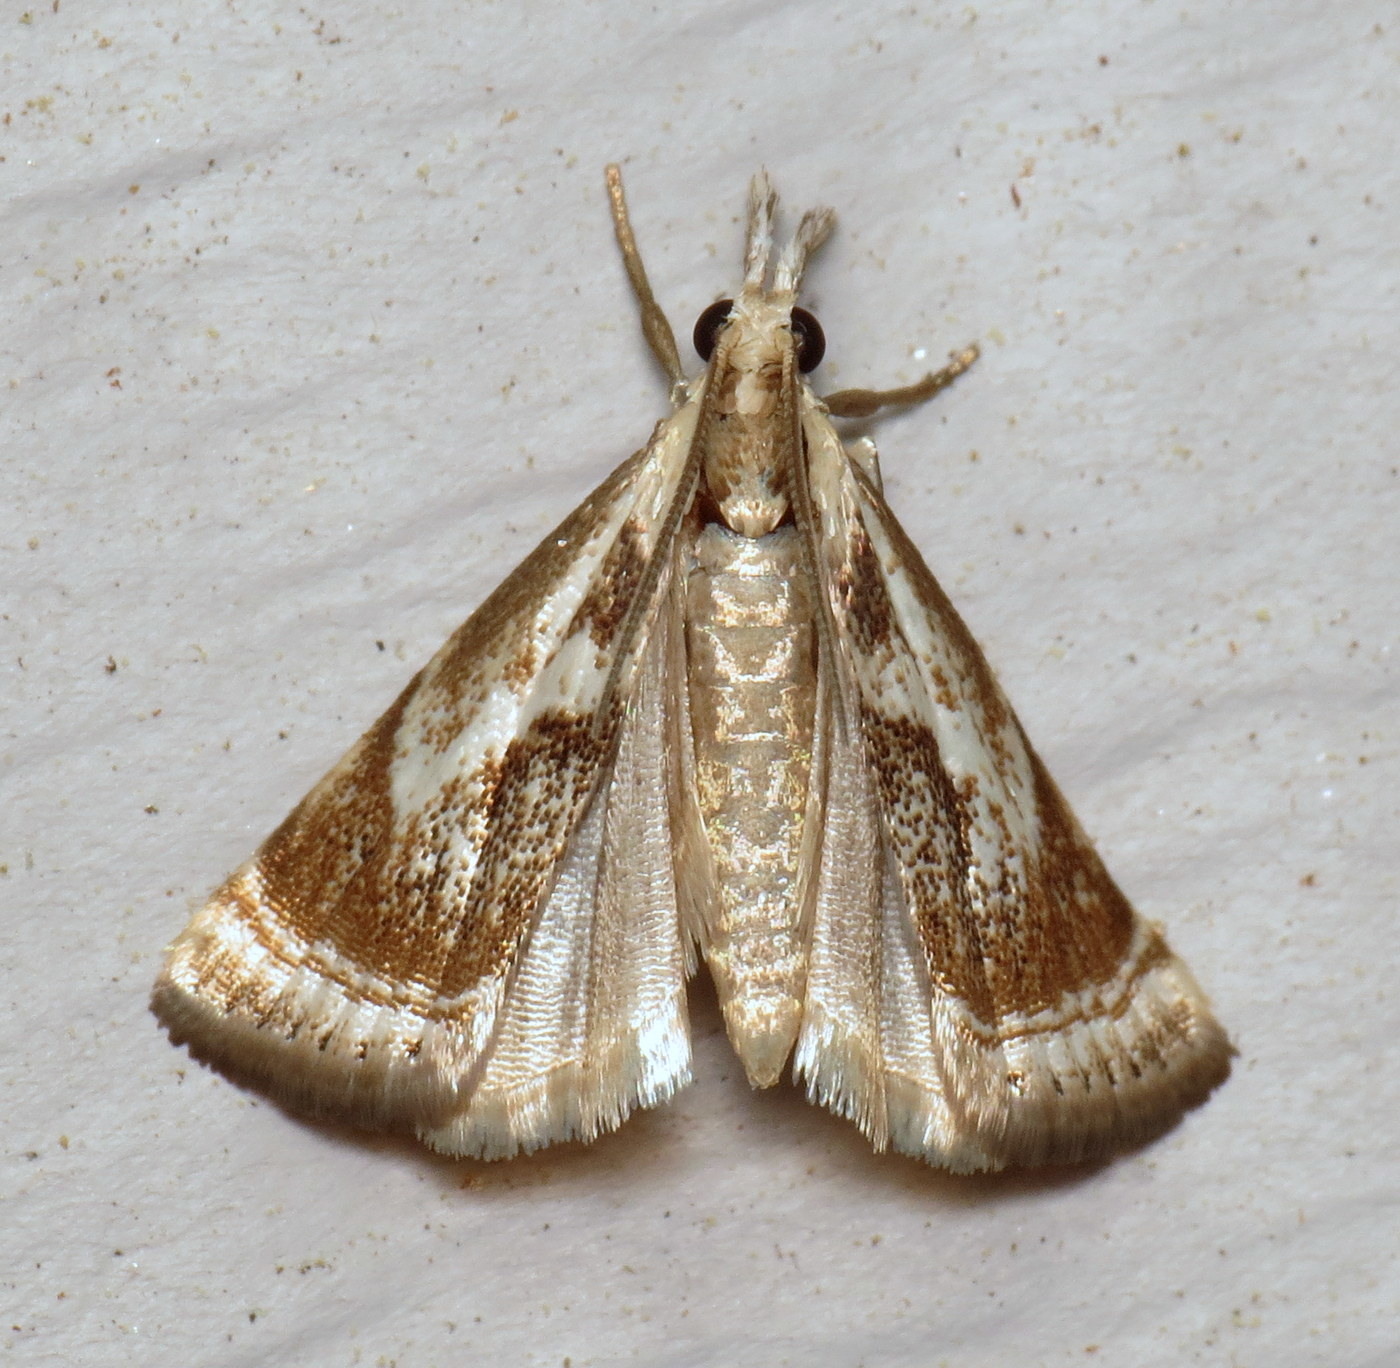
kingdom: Animalia
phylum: Arthropoda
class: Insecta
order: Lepidoptera
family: Crambidae
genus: Microcrambus
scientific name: Microcrambus elegans
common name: Elegant grass-veneer
